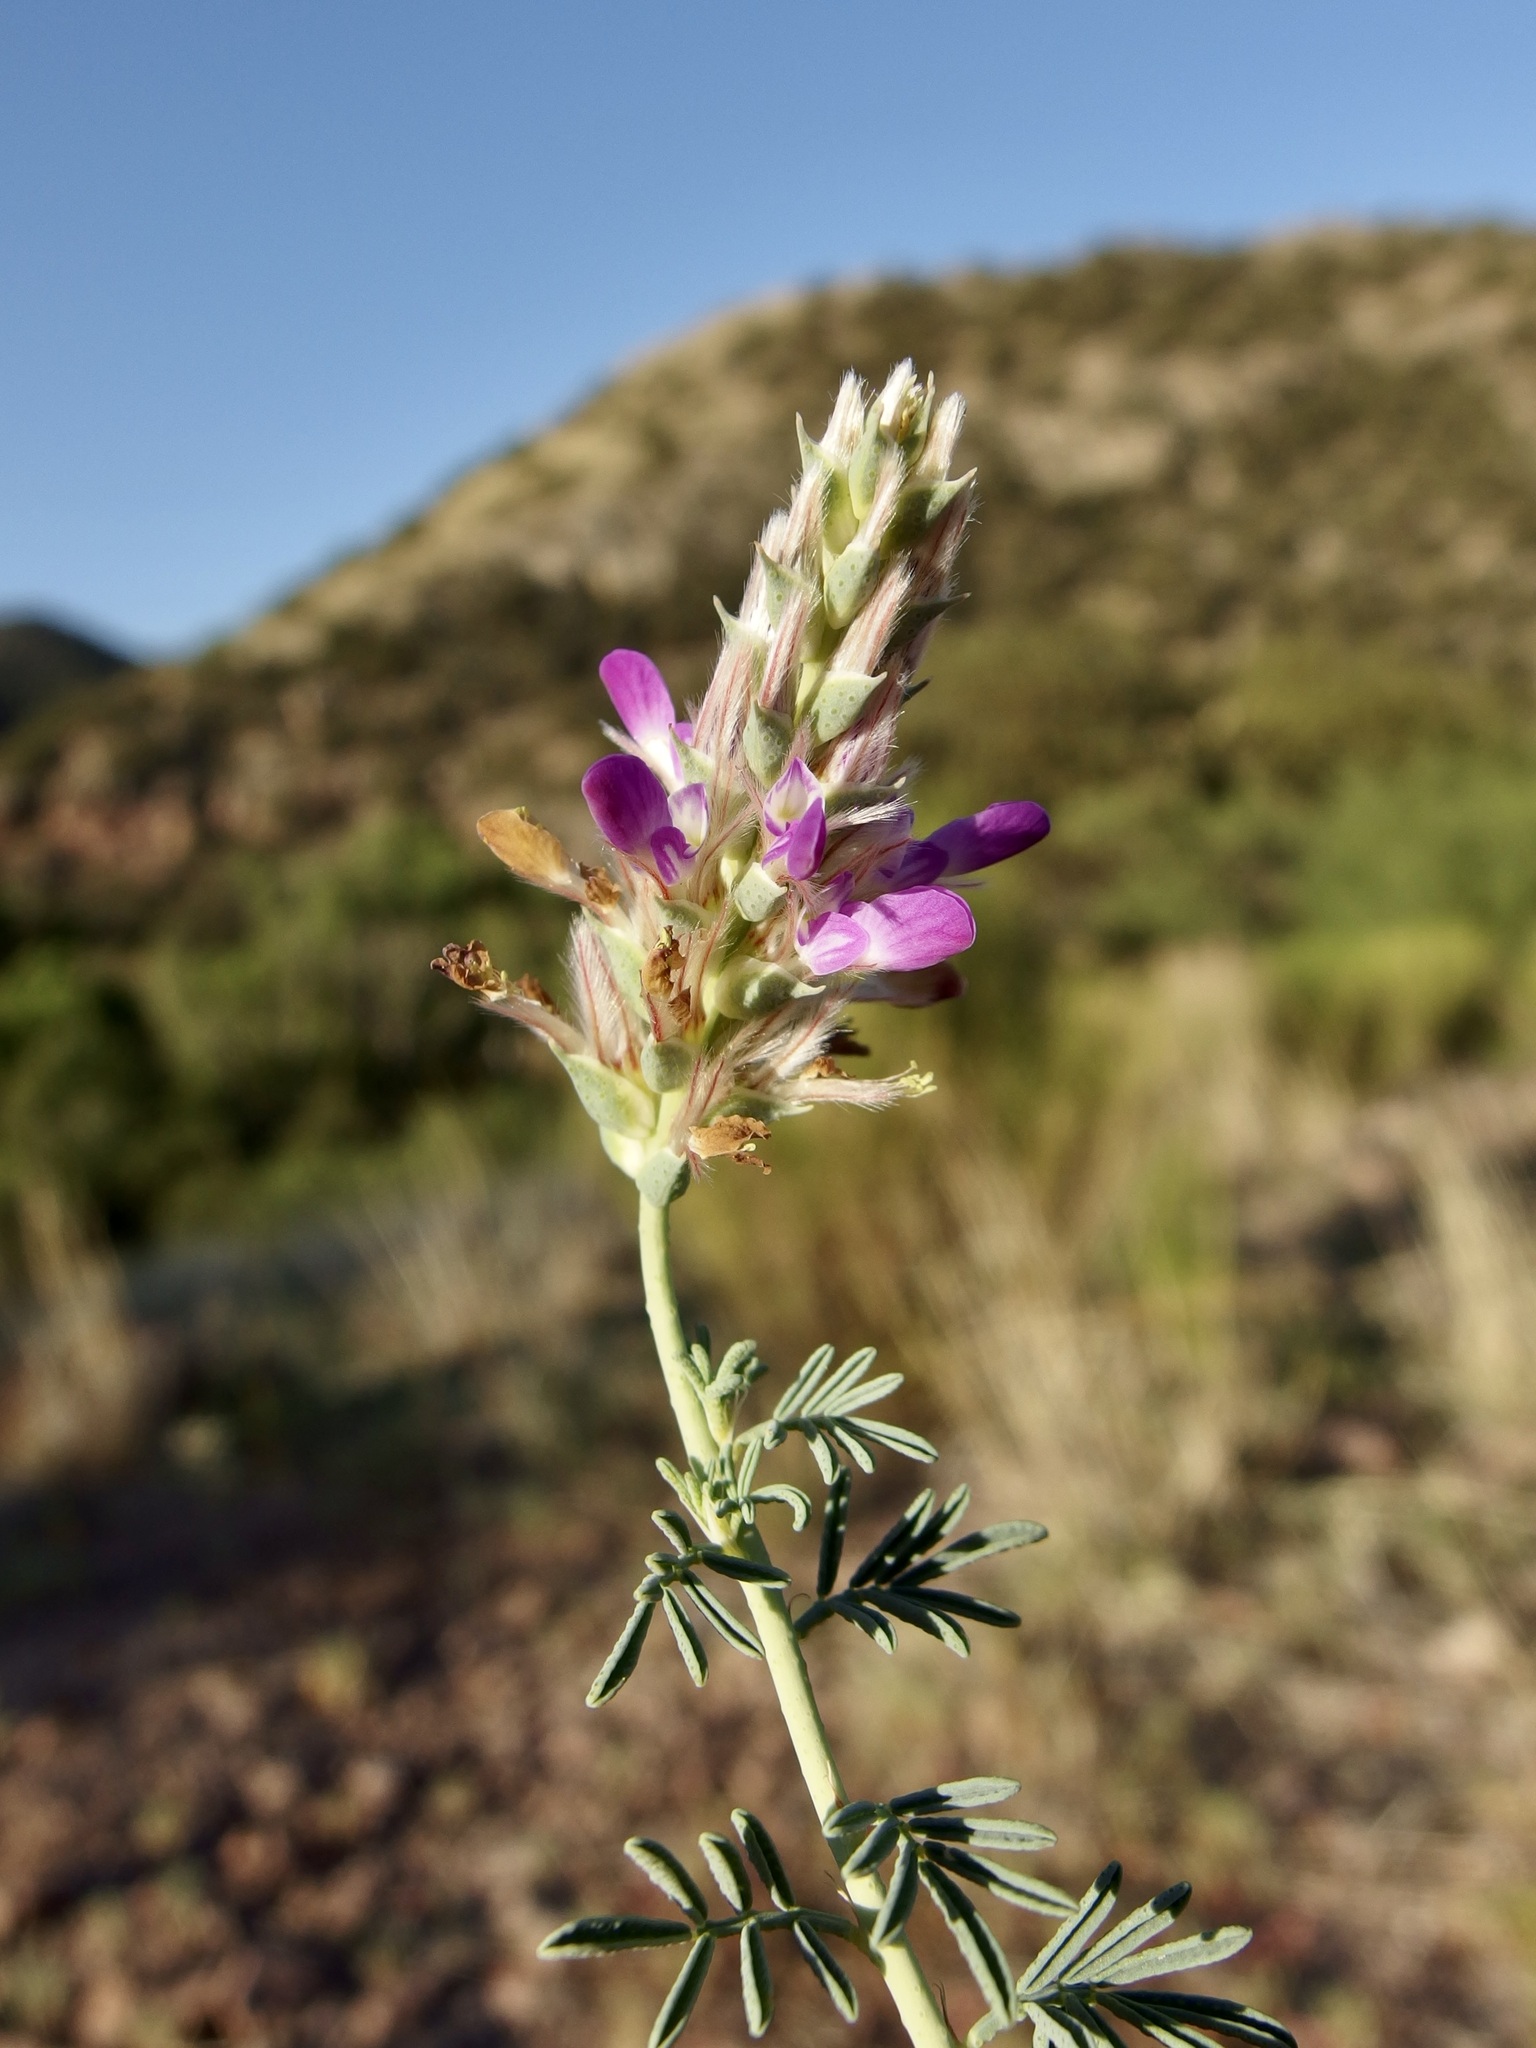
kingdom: Plantae
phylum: Tracheophyta
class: Magnoliopsida
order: Fabales
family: Fabaceae
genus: Dalea
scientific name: Dalea pogonathera
